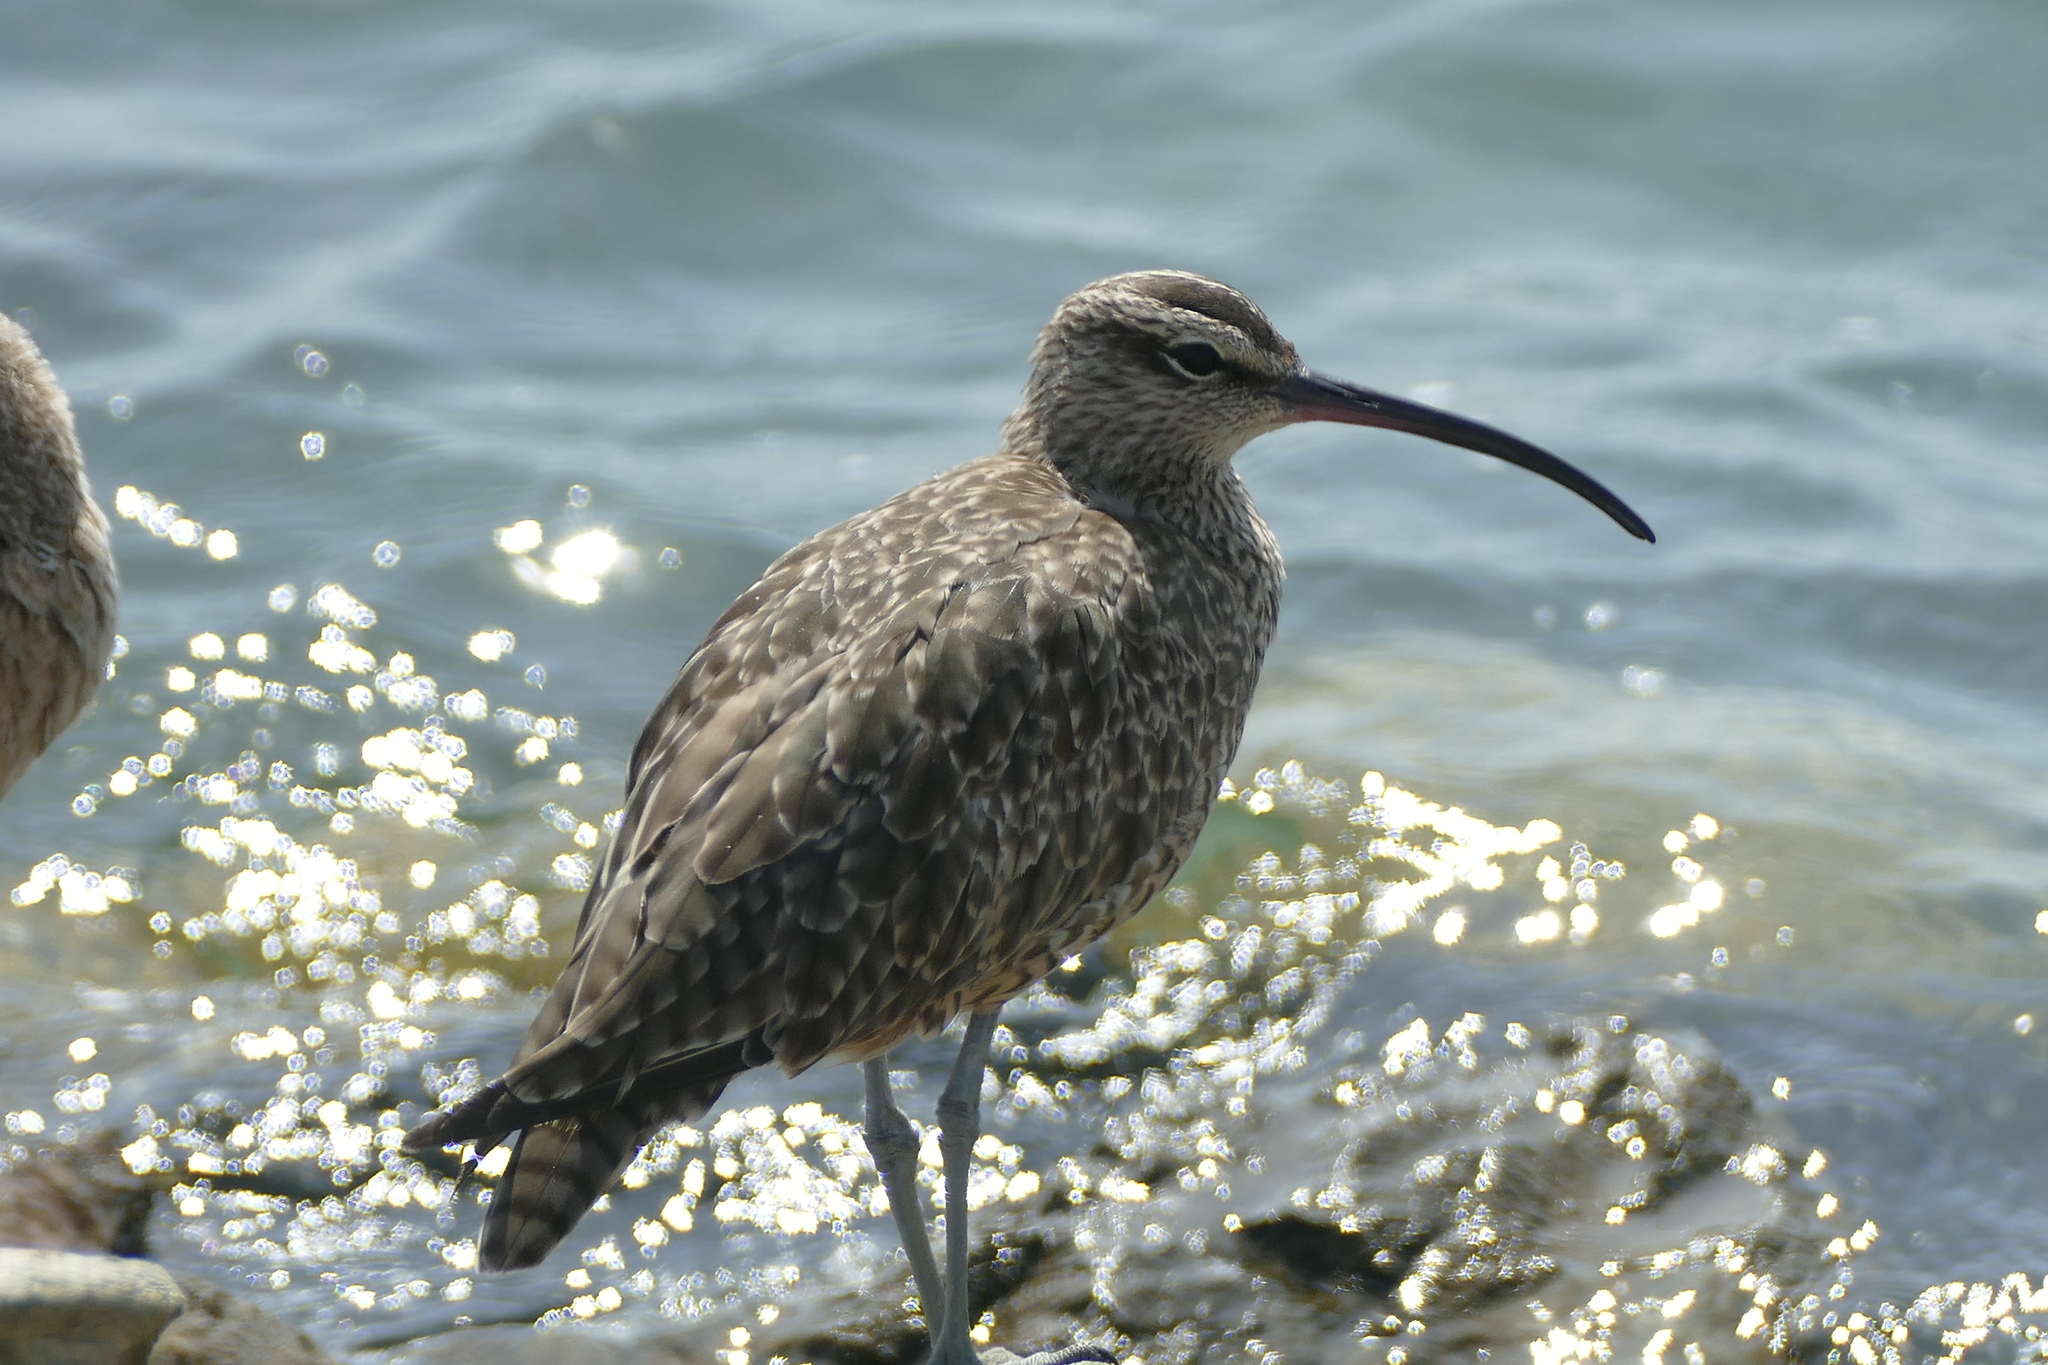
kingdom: Animalia
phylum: Chordata
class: Aves
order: Charadriiformes
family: Scolopacidae
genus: Numenius
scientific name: Numenius phaeopus
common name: Whimbrel
